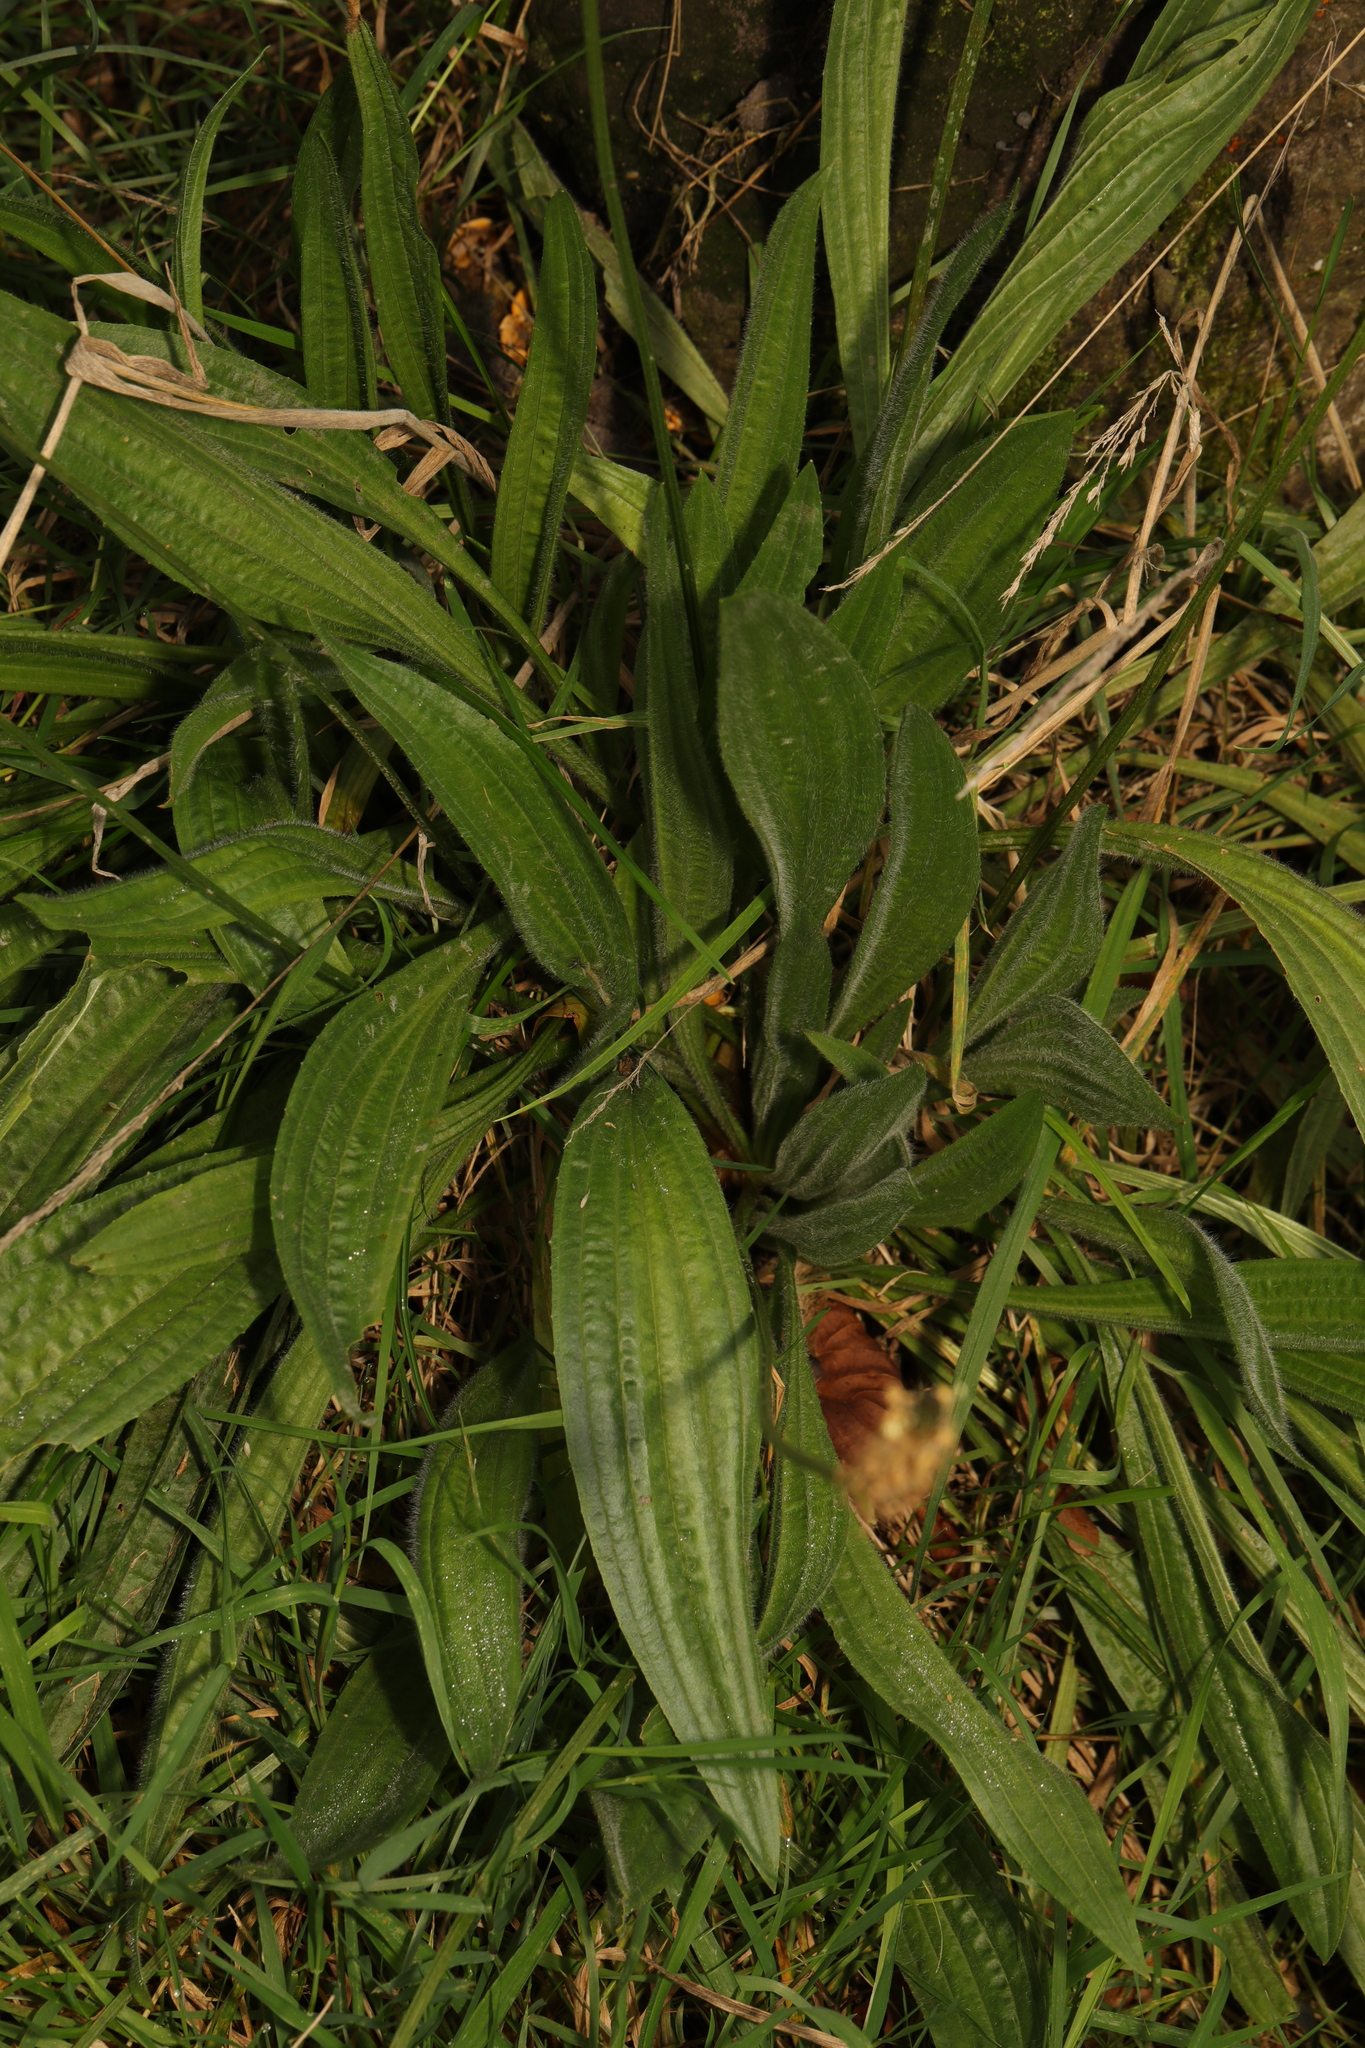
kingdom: Plantae
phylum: Tracheophyta
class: Magnoliopsida
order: Lamiales
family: Plantaginaceae
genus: Plantago
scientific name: Plantago lanceolata
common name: Ribwort plantain
